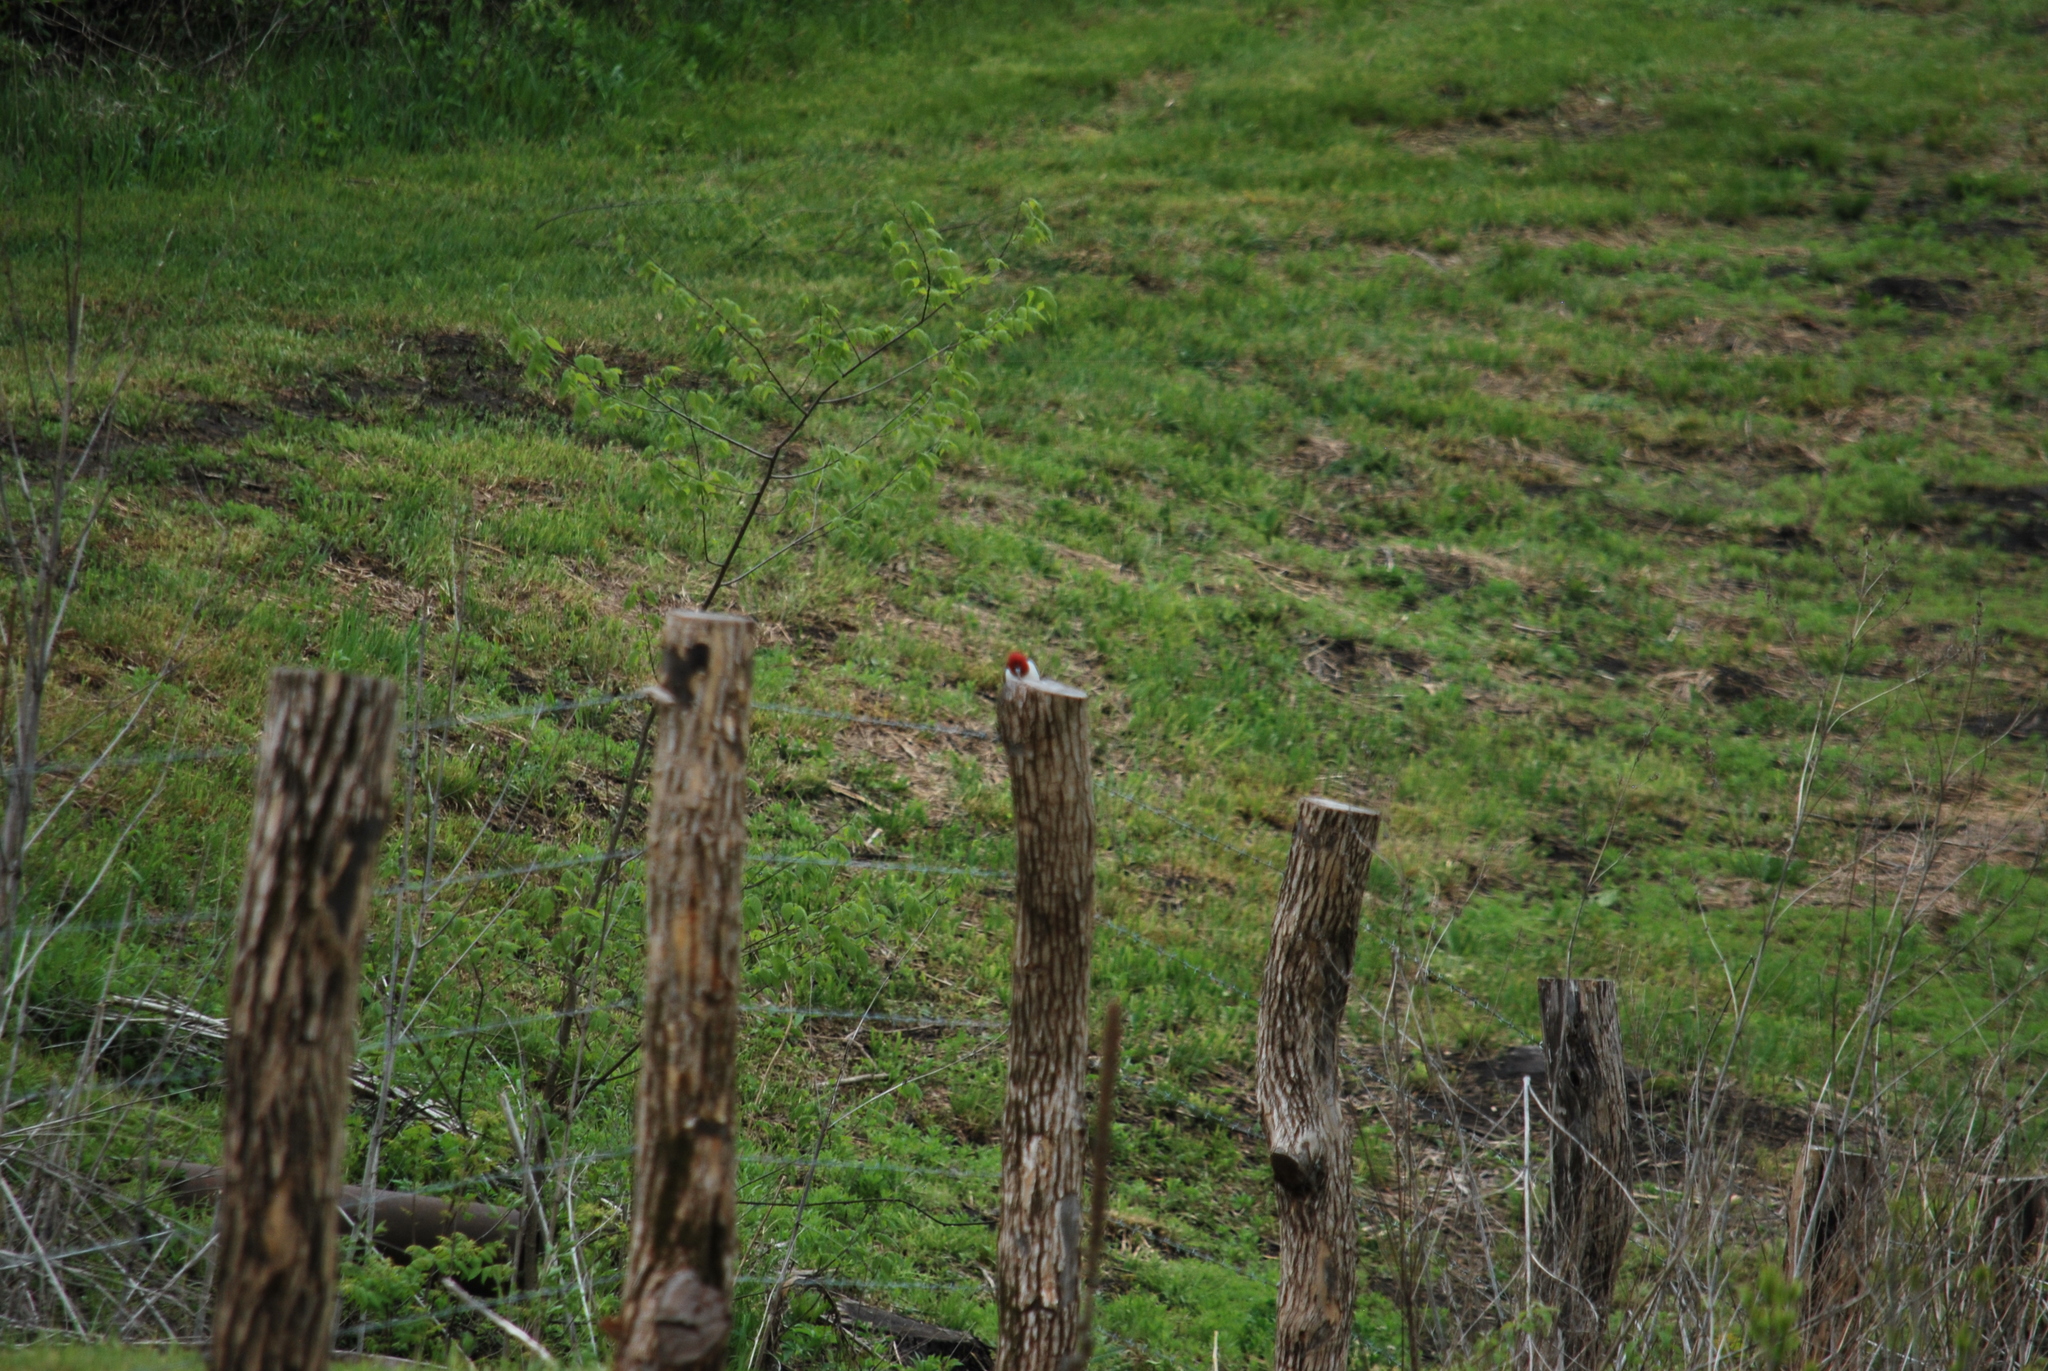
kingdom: Animalia
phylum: Chordata
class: Aves
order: Piciformes
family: Picidae
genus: Melanerpes
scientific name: Melanerpes erythrocephalus
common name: Red-headed woodpecker
